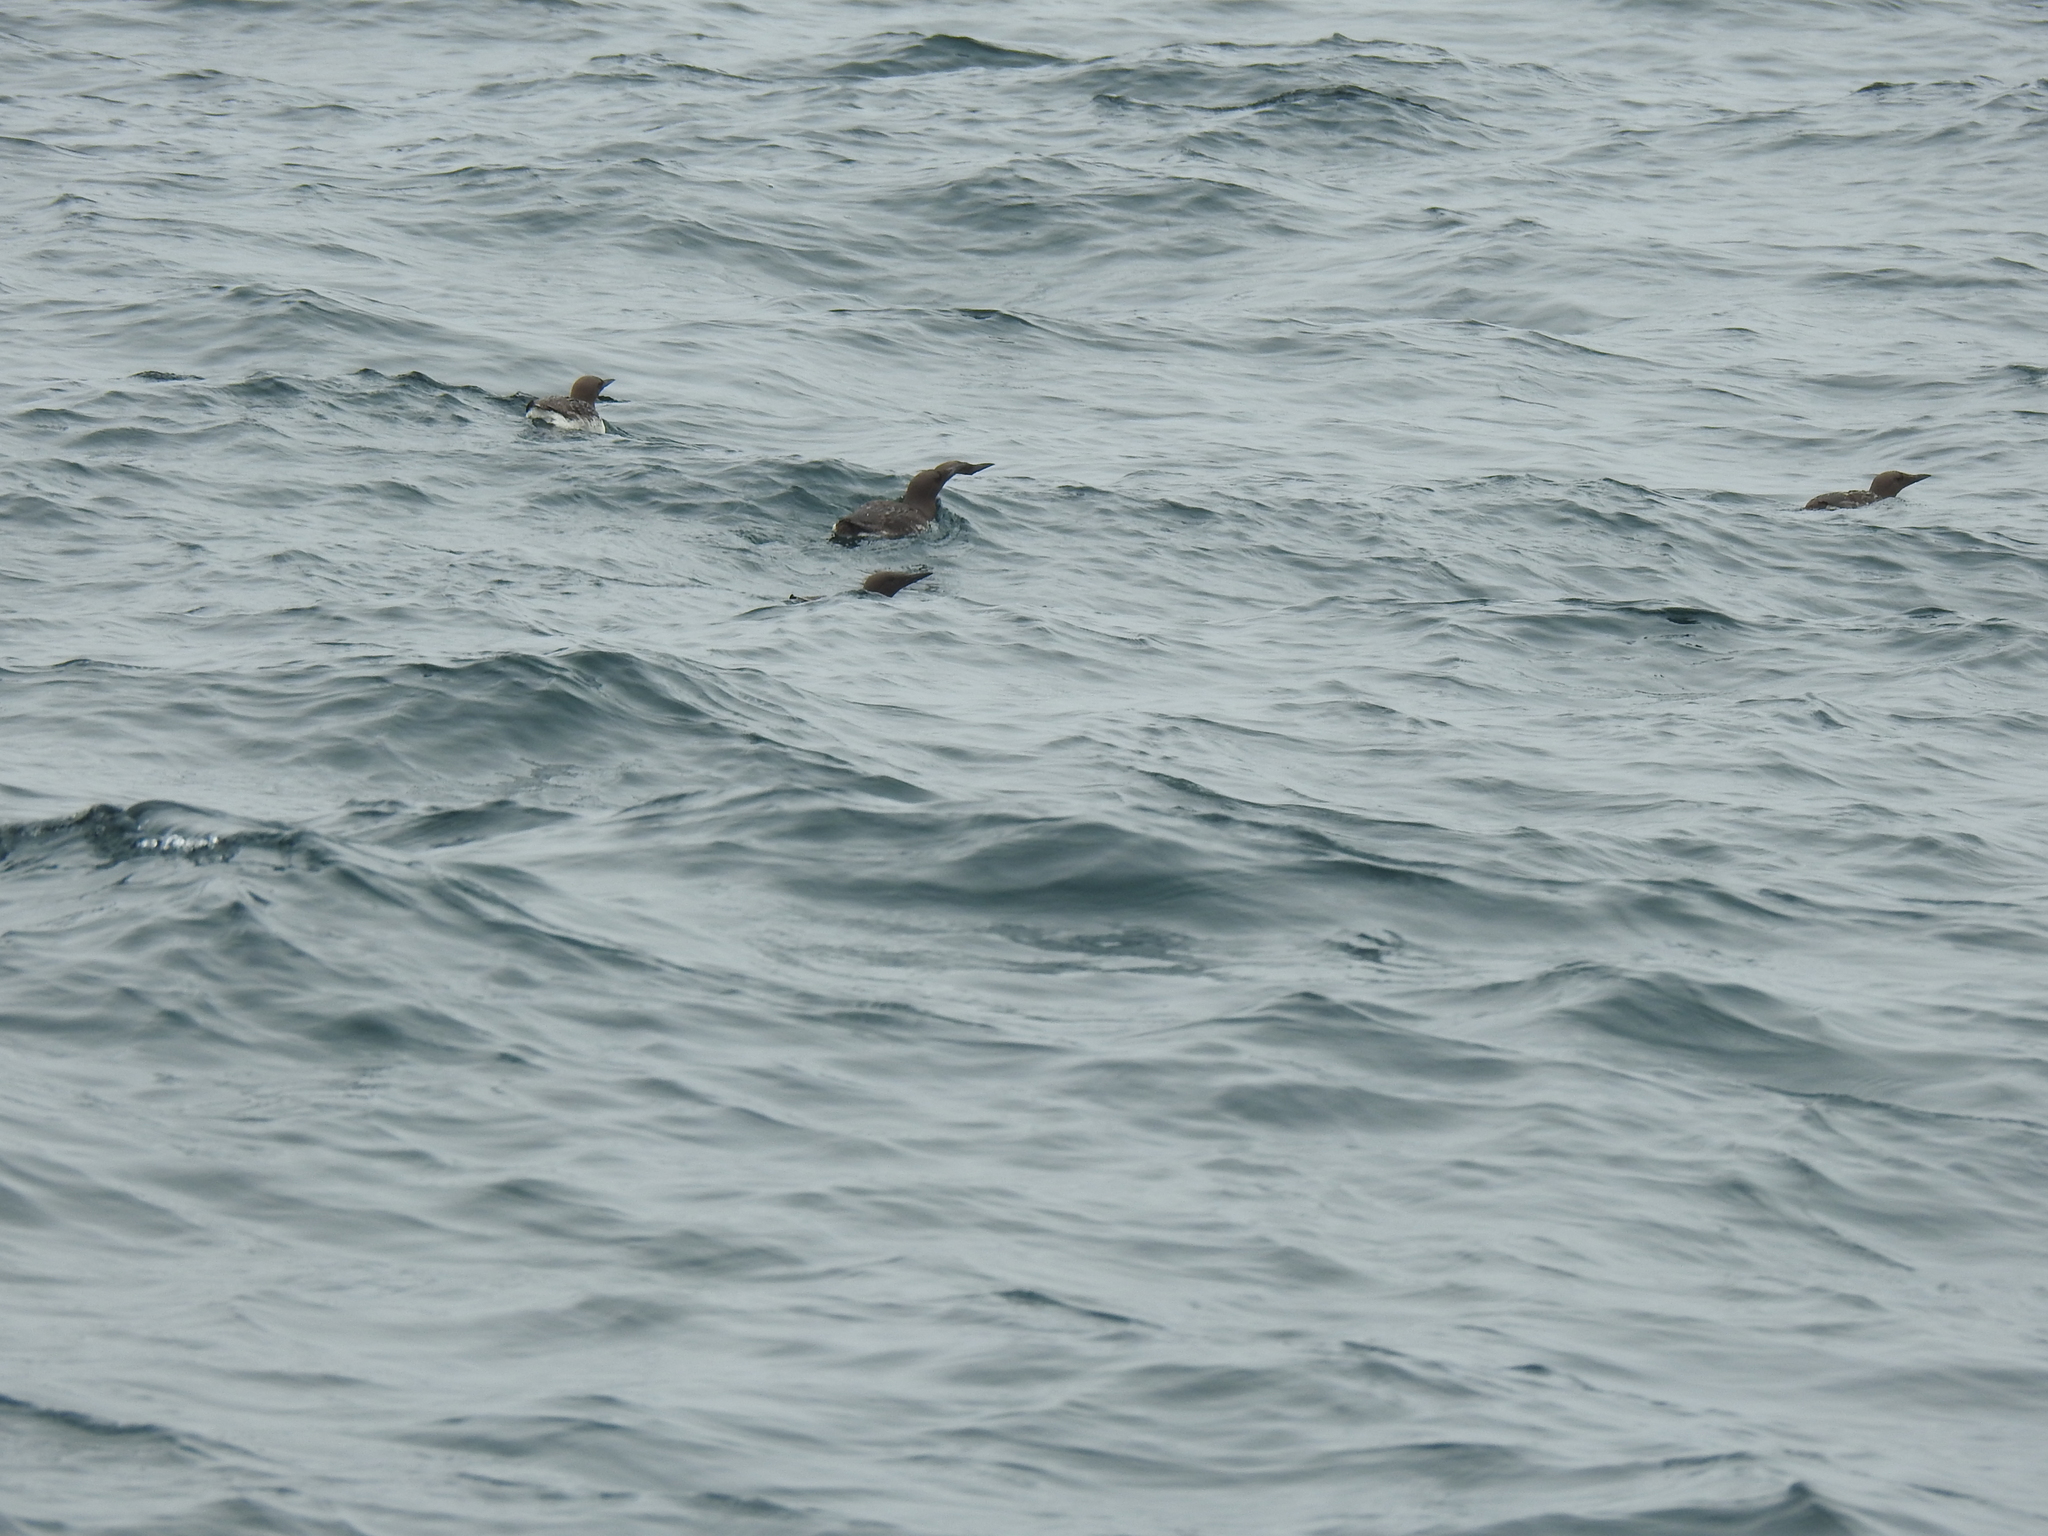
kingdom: Animalia
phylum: Chordata
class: Aves
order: Charadriiformes
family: Alcidae
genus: Uria
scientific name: Uria aalge
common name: Common murre
